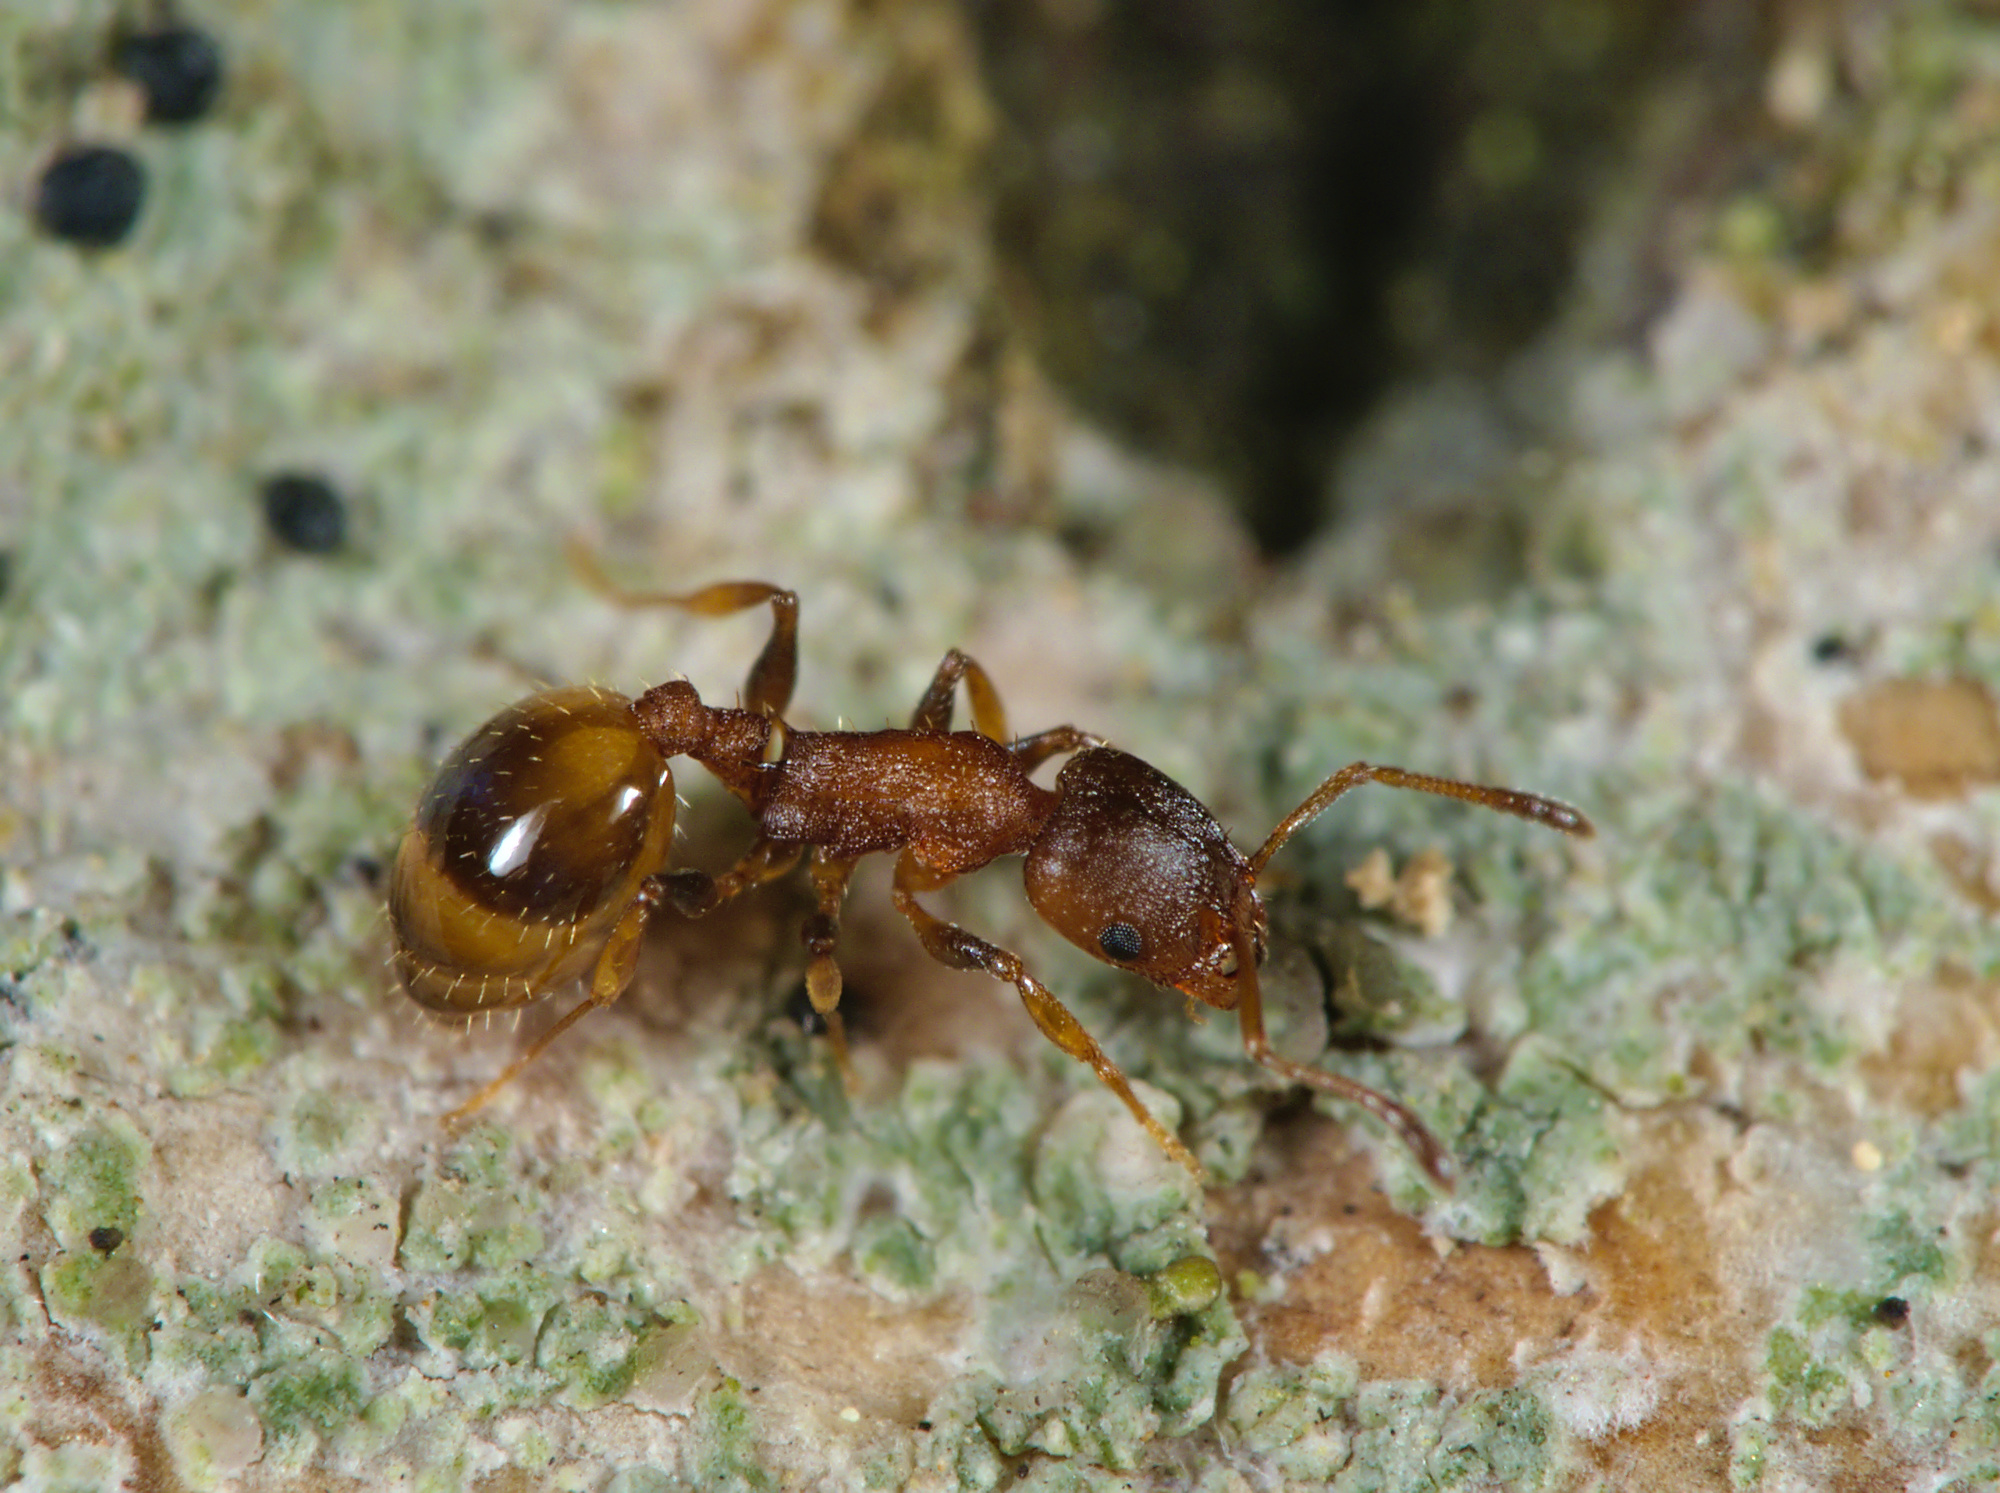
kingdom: Animalia
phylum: Arthropoda
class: Insecta
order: Hymenoptera
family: Formicidae
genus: Leptothorax
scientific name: Leptothorax affinis
